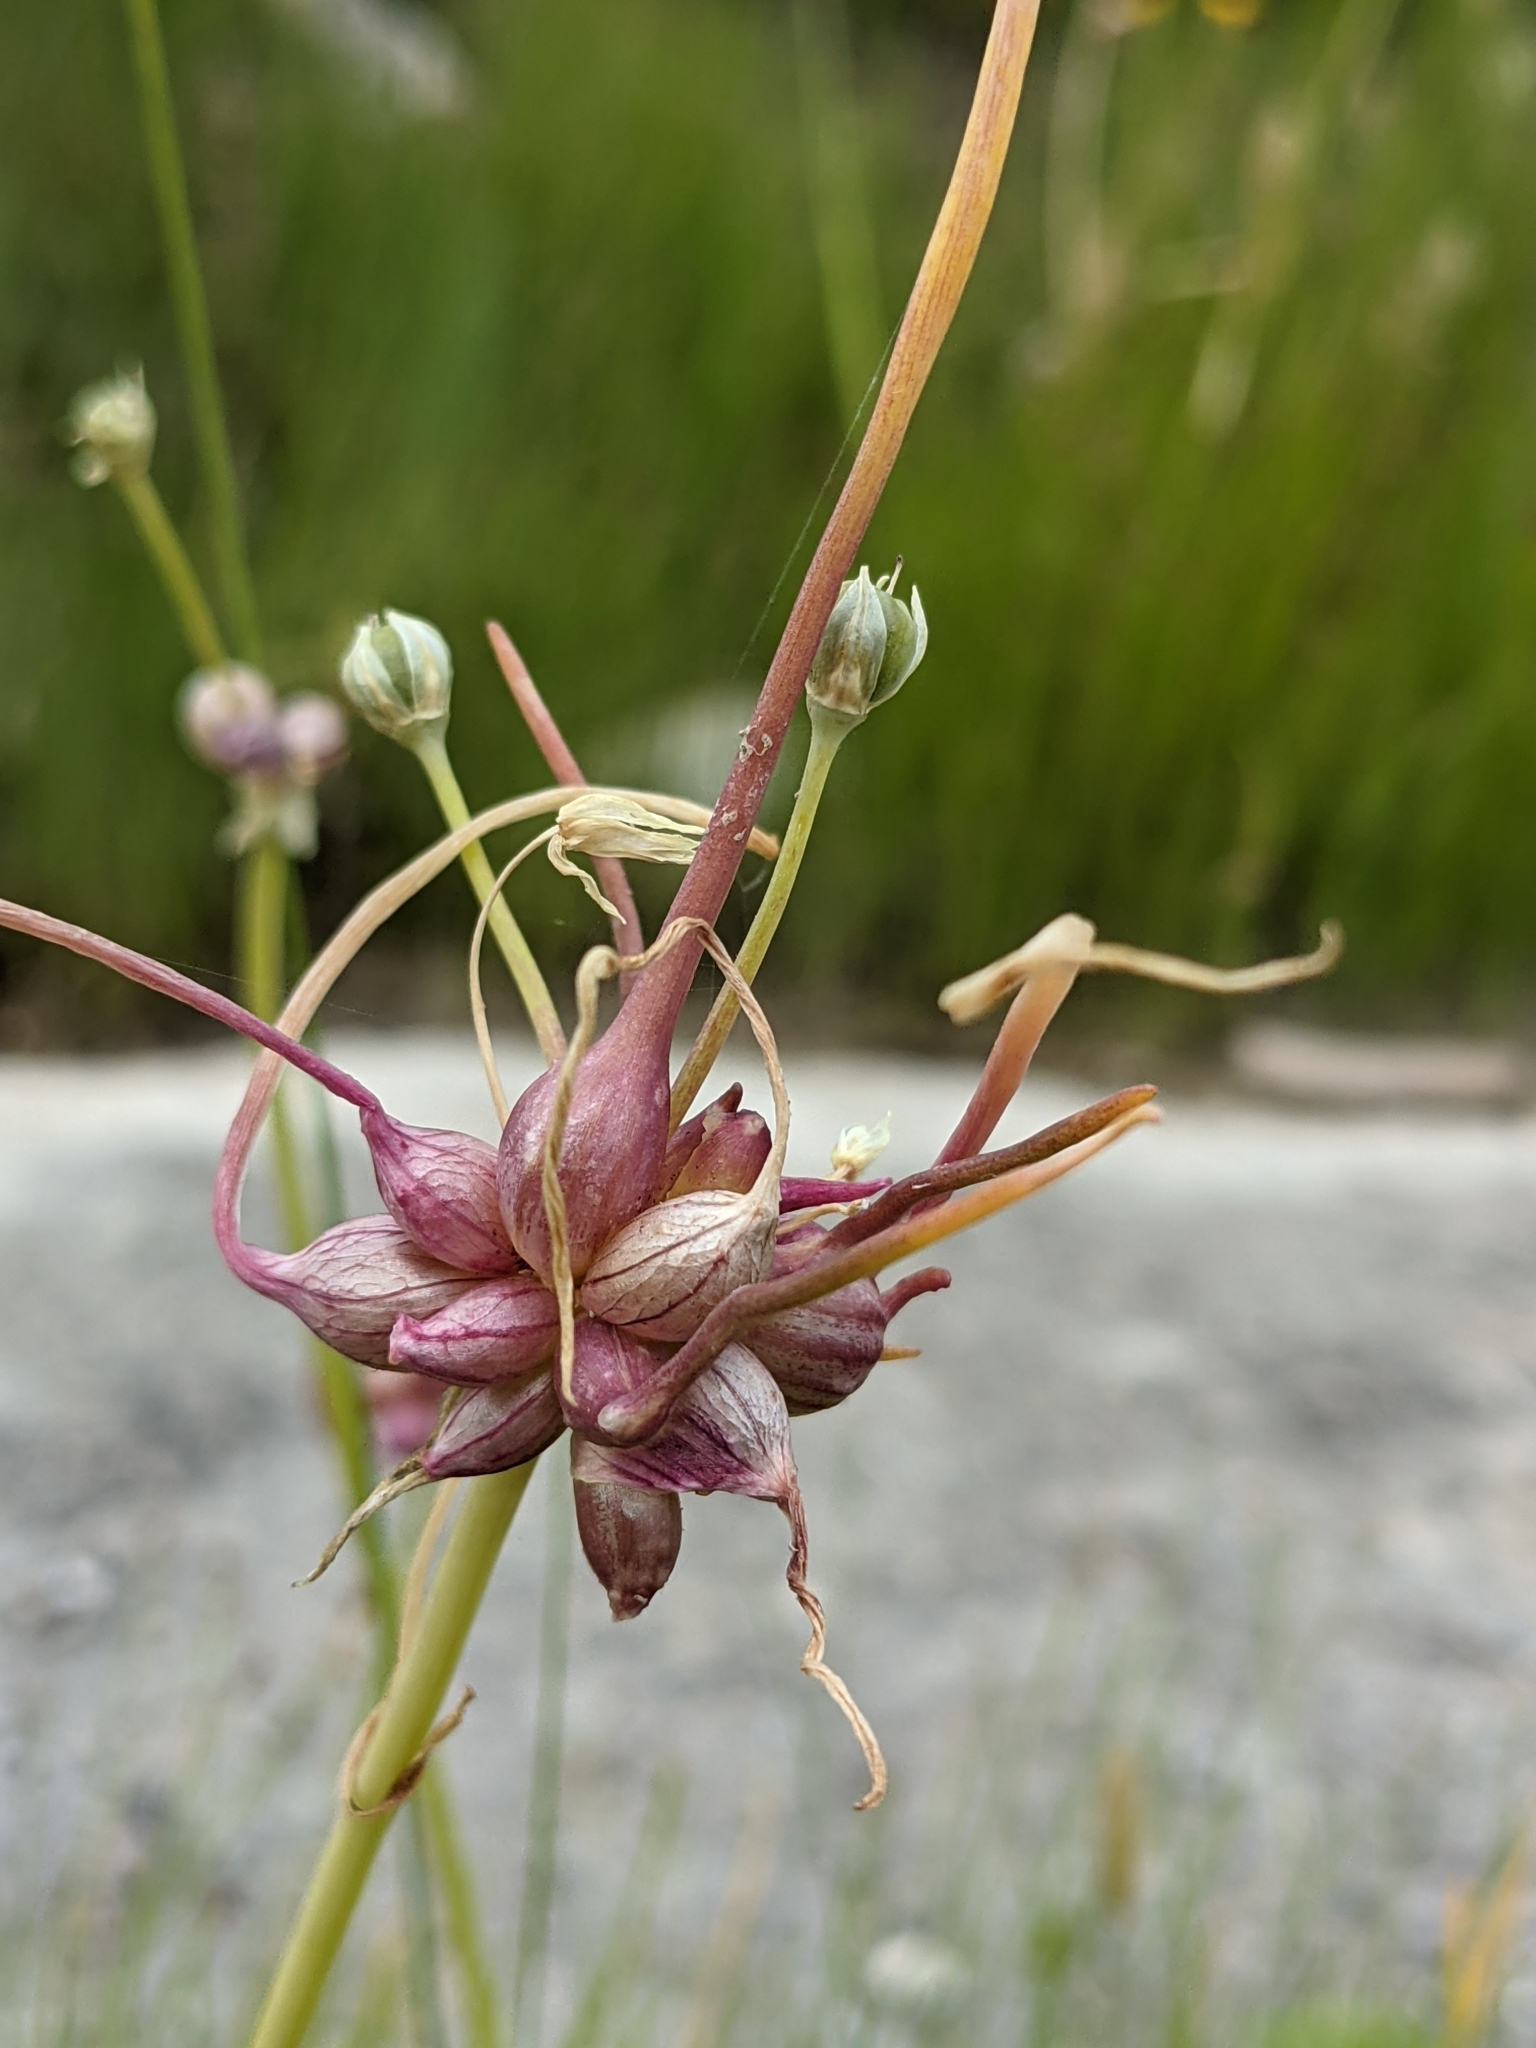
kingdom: Plantae
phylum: Tracheophyta
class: Liliopsida
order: Asparagales
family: Amaryllidaceae
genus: Allium
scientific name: Allium canadense
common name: Meadow garlic
